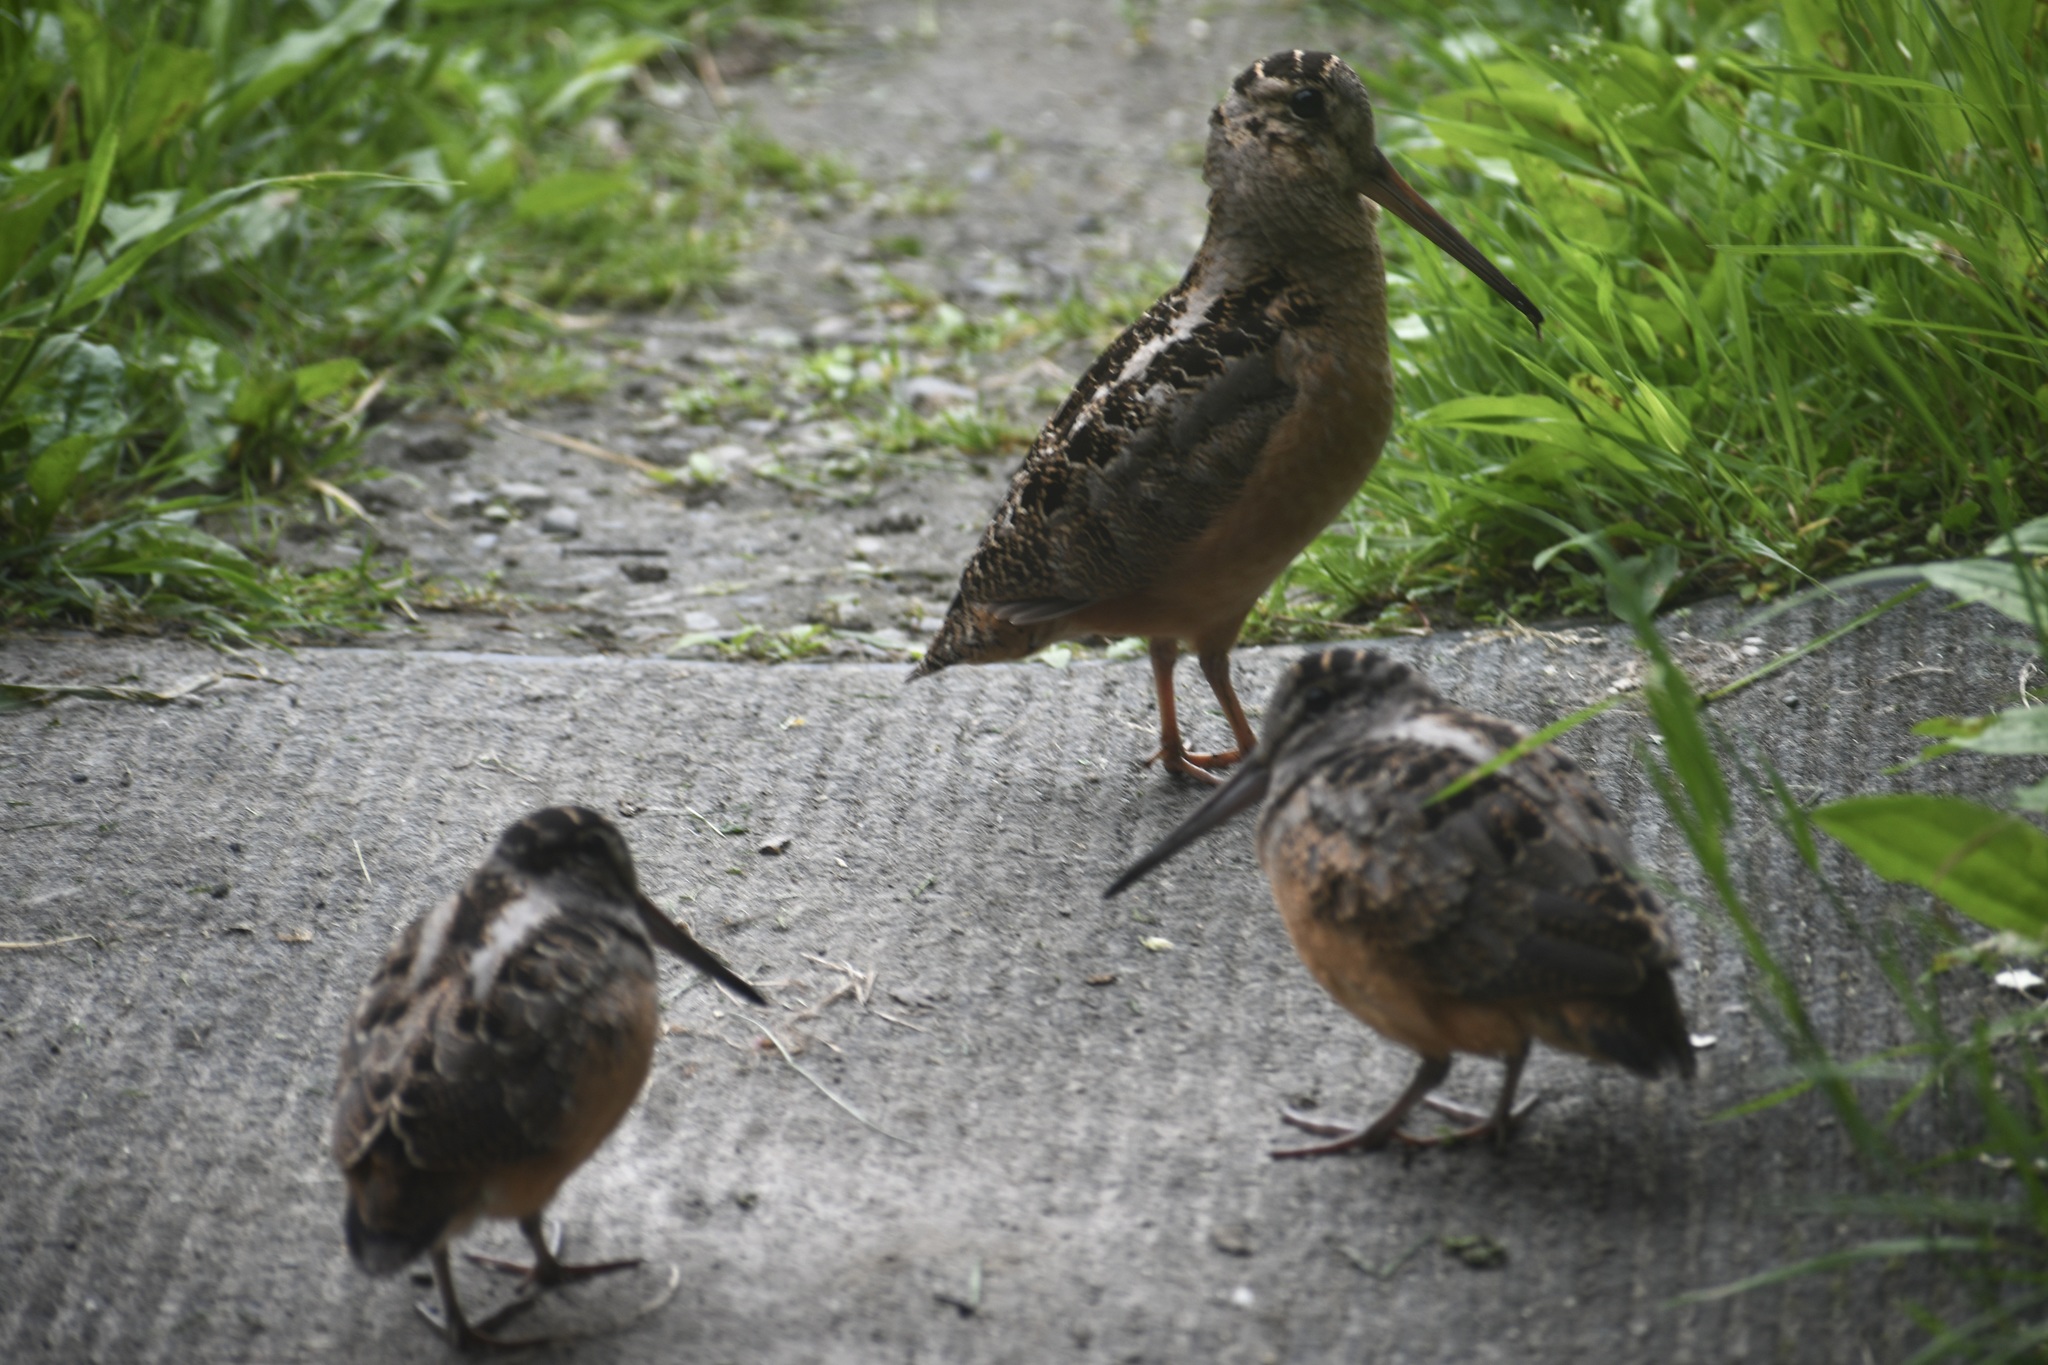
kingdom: Animalia
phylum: Chordata
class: Aves
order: Charadriiformes
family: Scolopacidae
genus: Scolopax
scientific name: Scolopax minor
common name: American woodcock
